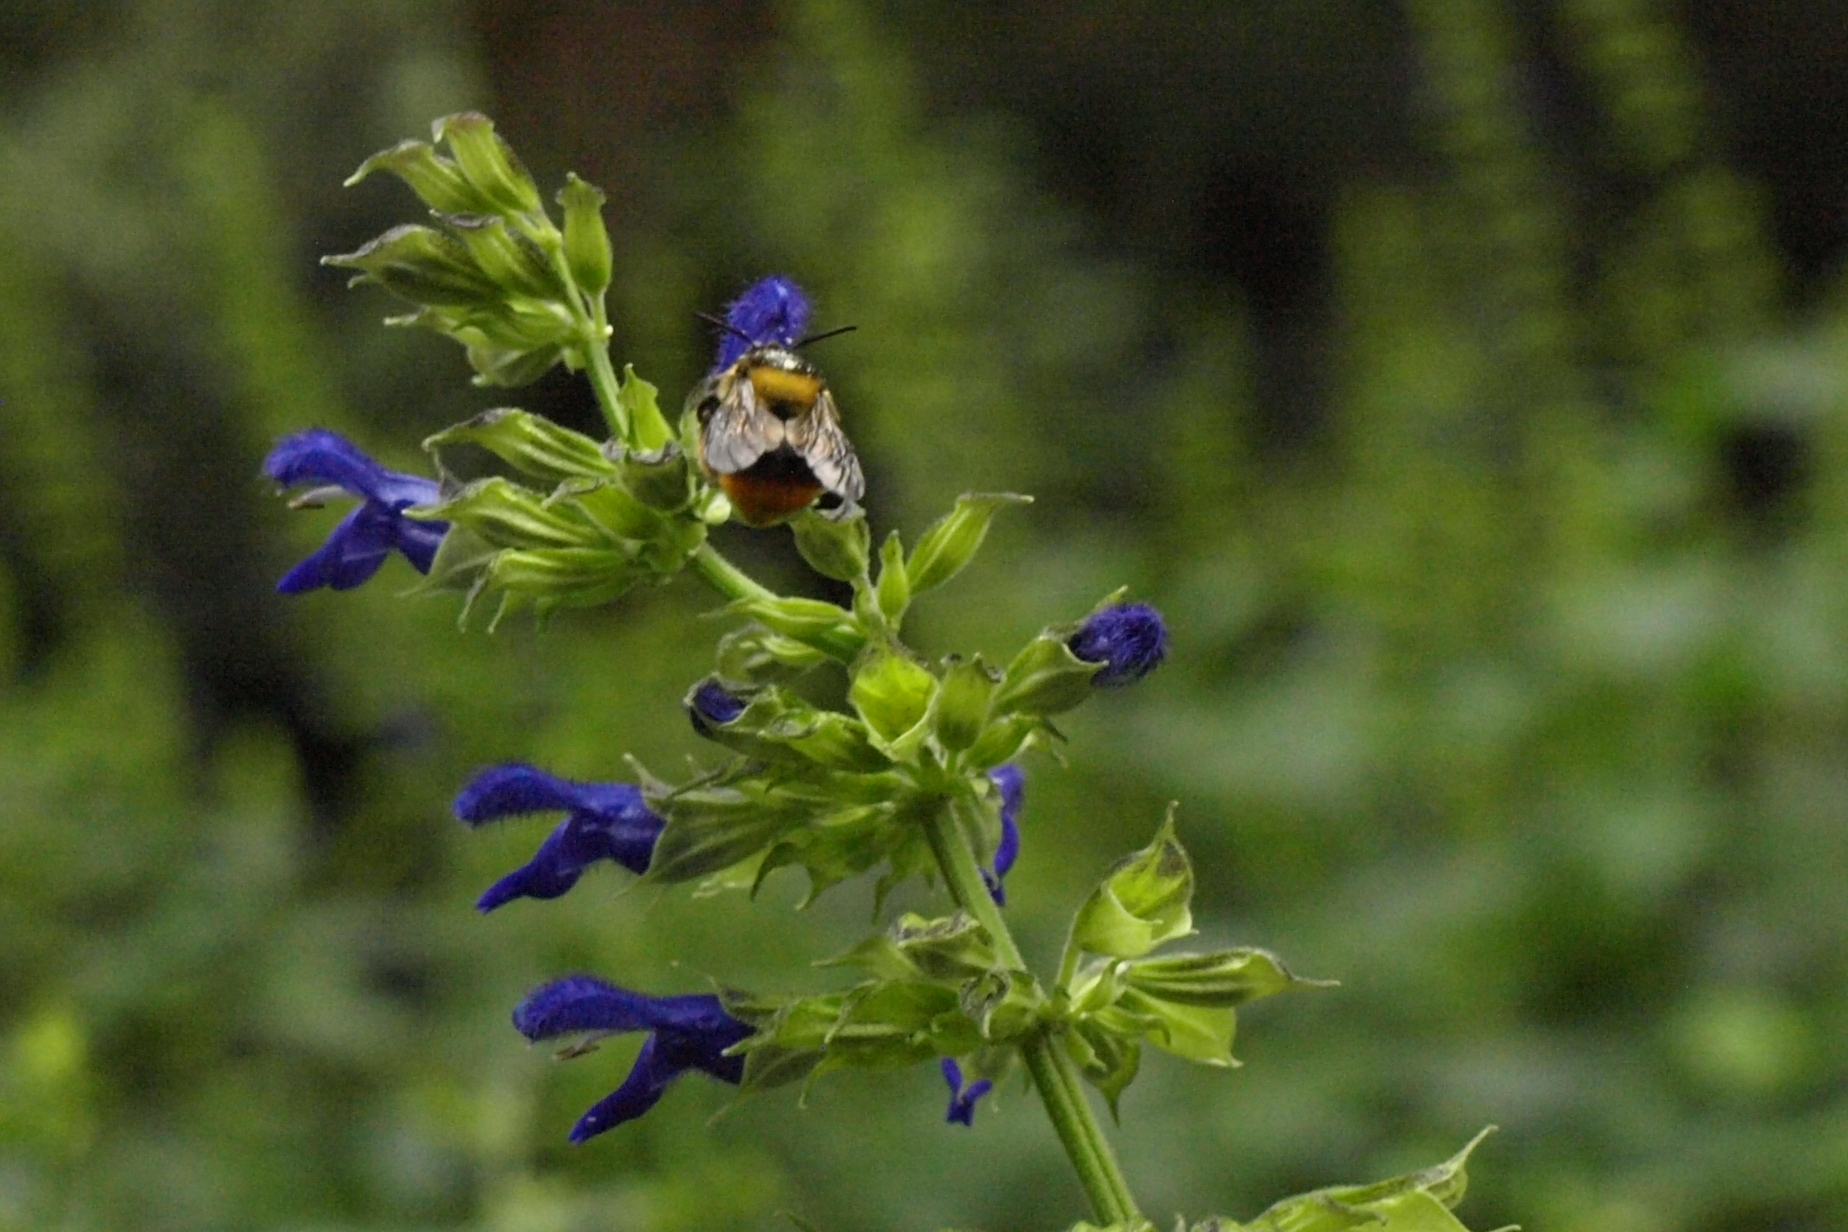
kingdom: Animalia
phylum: Arthropoda
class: Insecta
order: Hymenoptera
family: Apidae
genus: Deltoptila
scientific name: Deltoptila elefas
